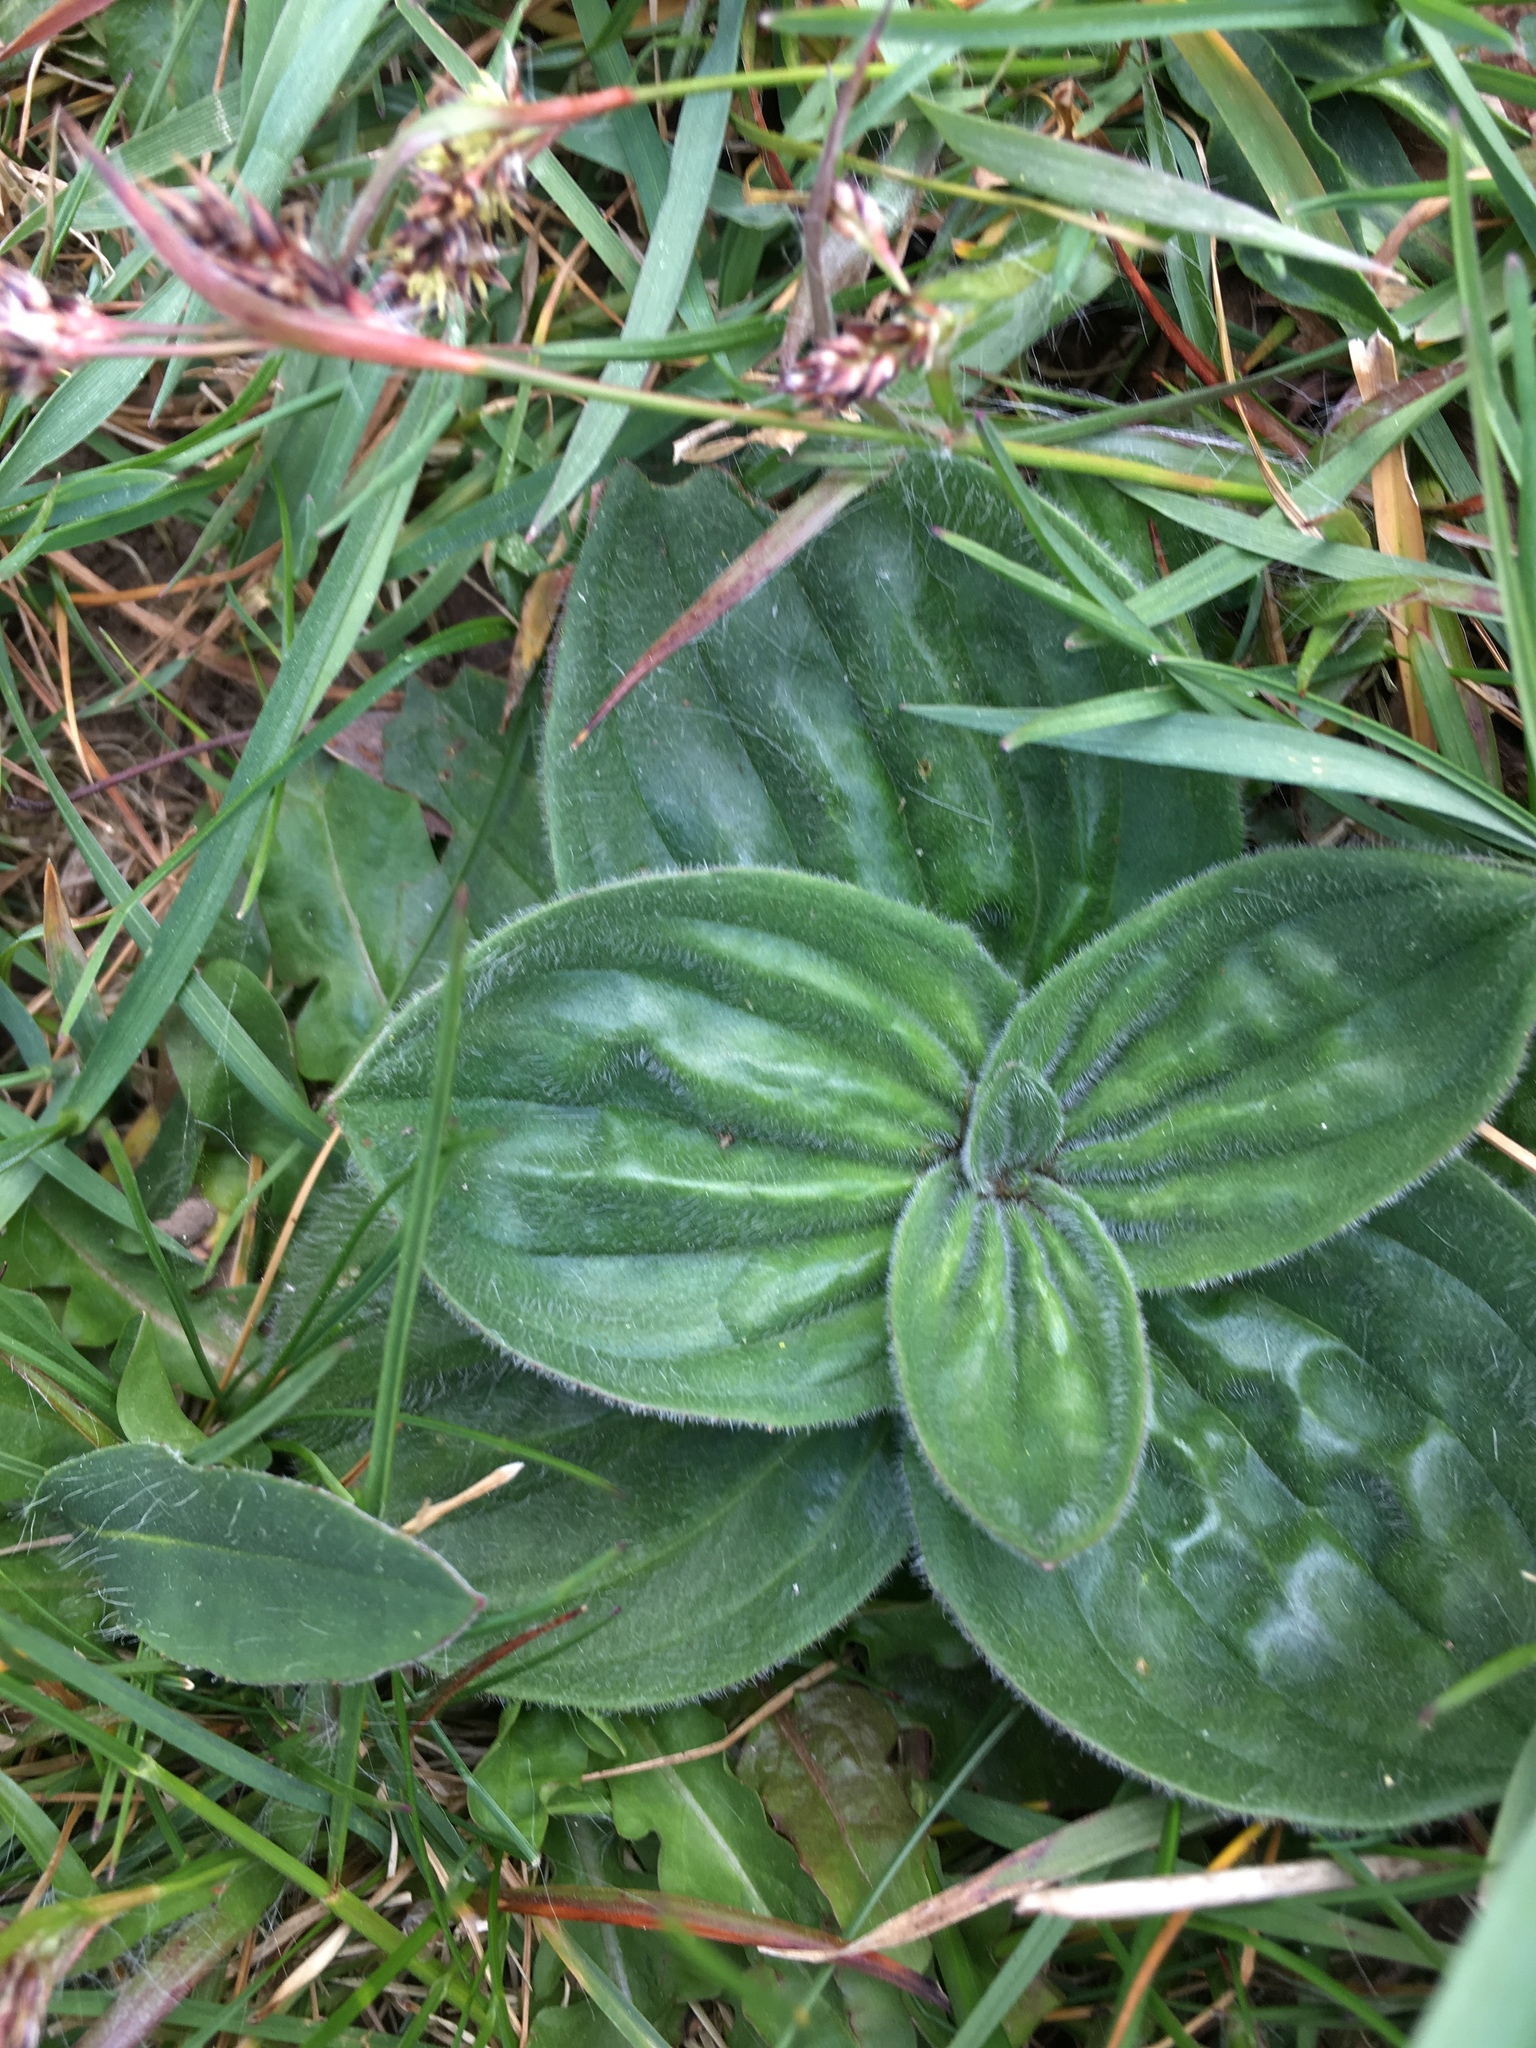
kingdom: Plantae
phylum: Tracheophyta
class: Magnoliopsida
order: Lamiales
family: Plantaginaceae
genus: Plantago
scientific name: Plantago media
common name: Hoary plantain
